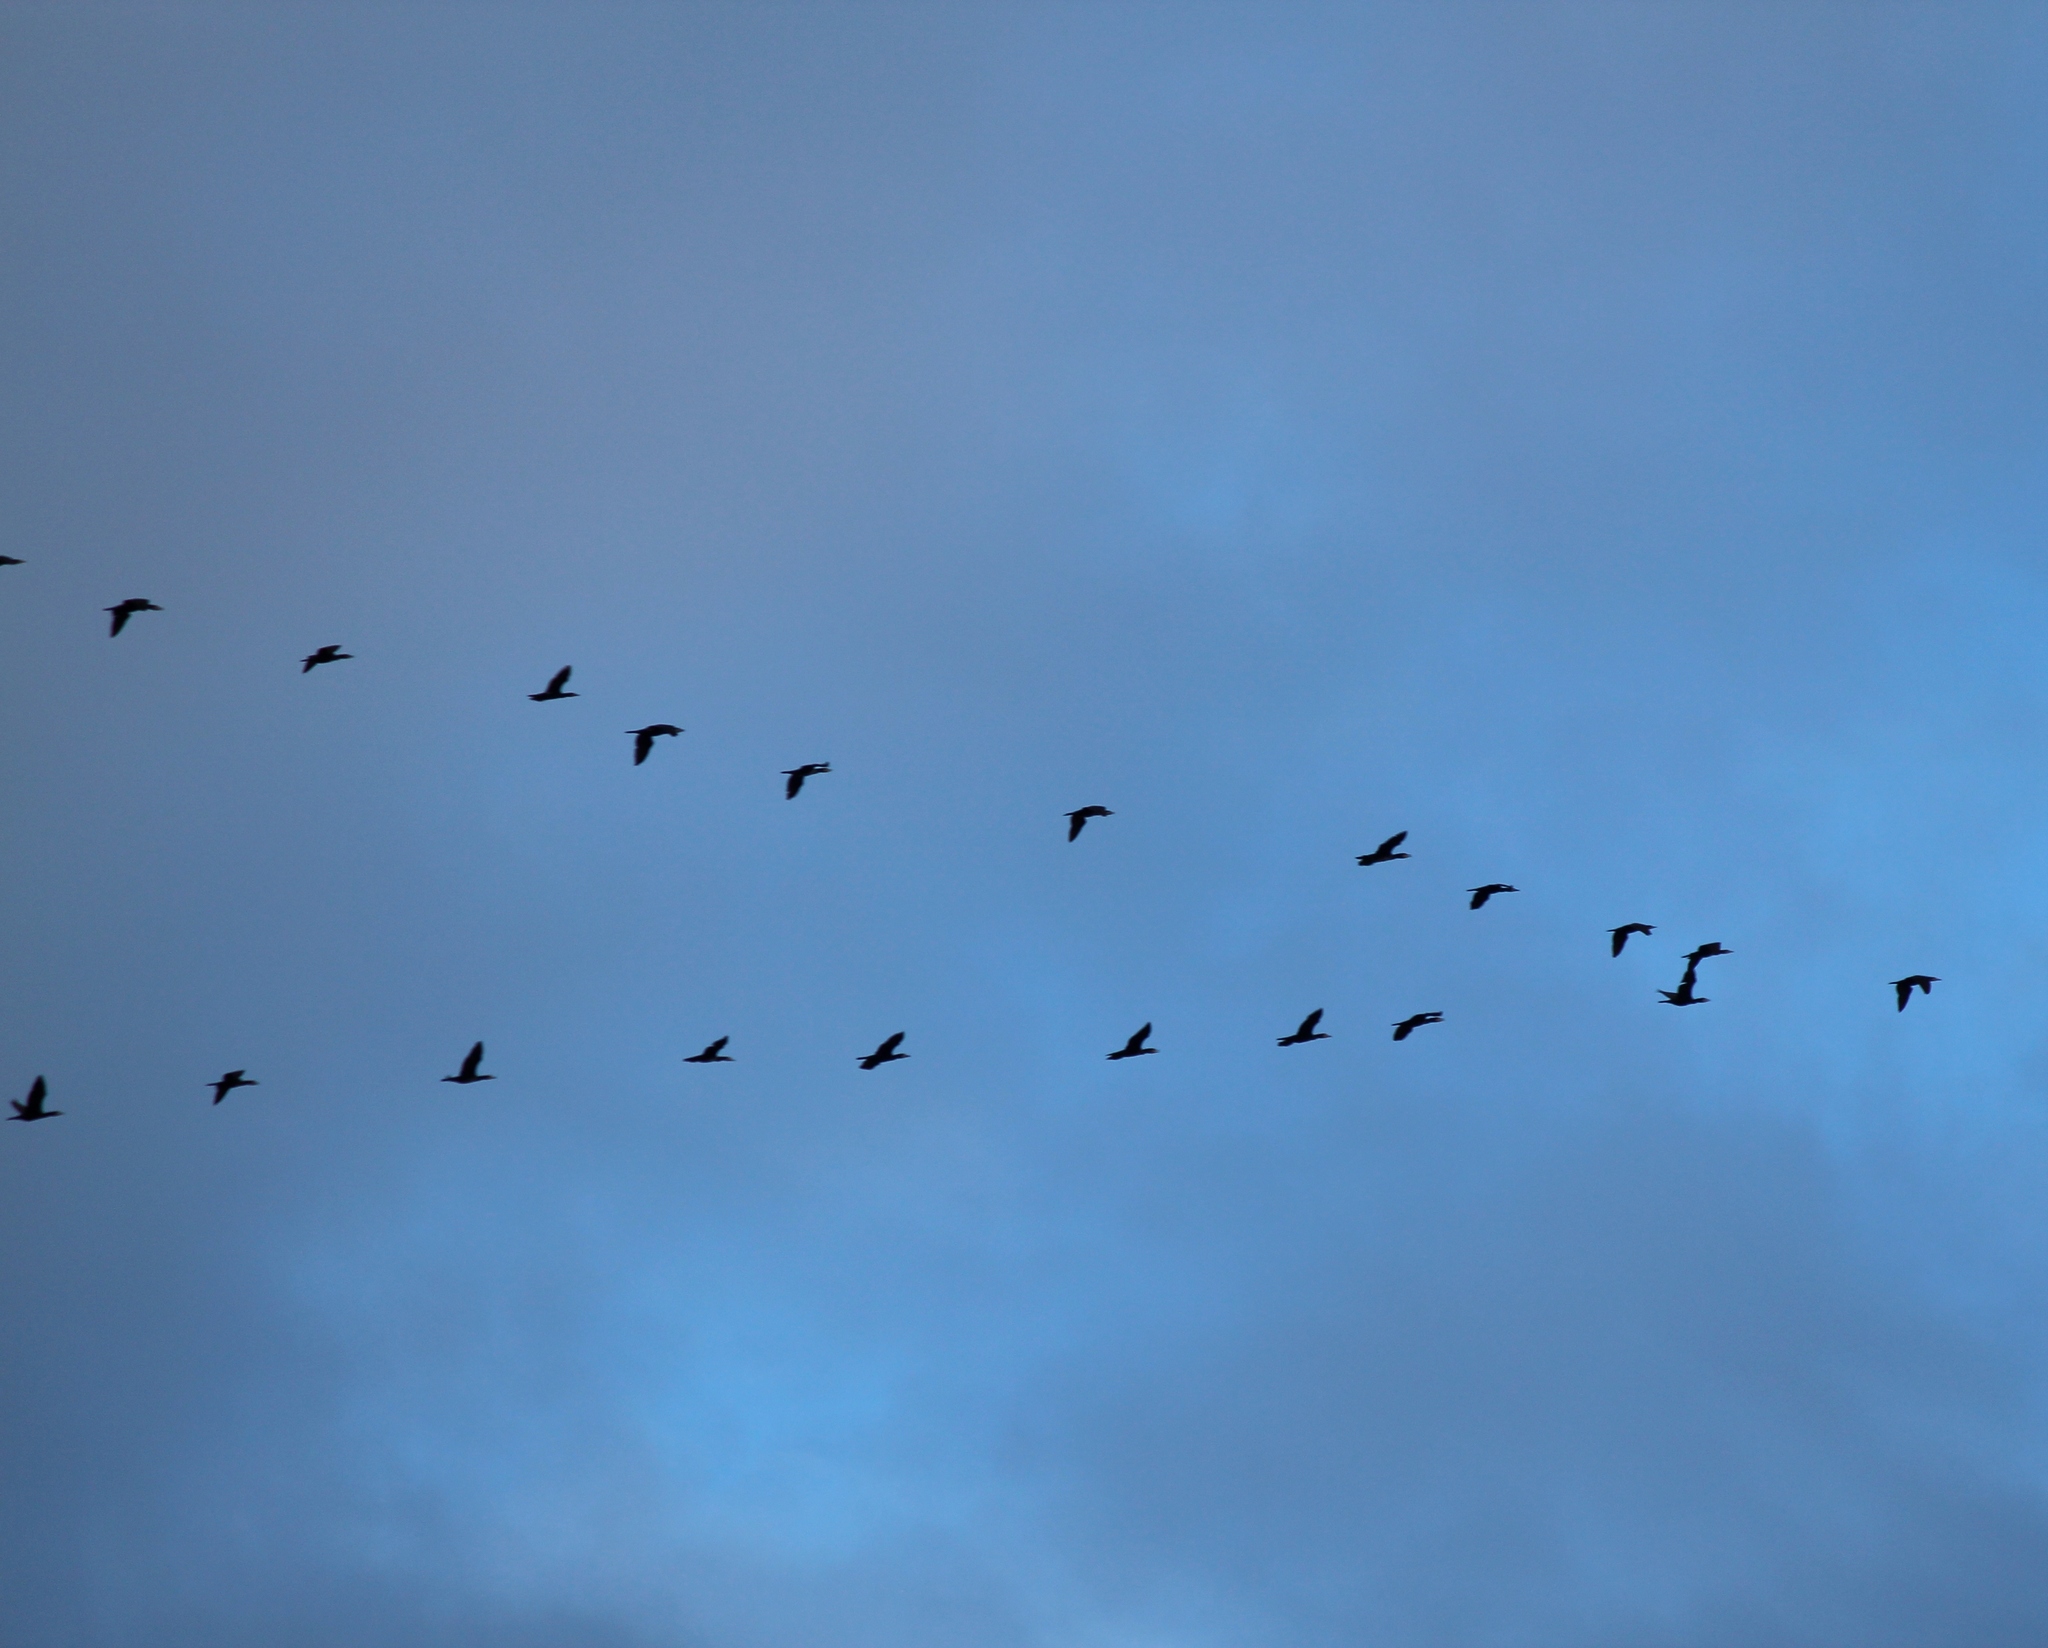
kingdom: Animalia
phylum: Chordata
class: Aves
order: Suliformes
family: Phalacrocoracidae
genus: Phalacrocorax
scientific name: Phalacrocorax carbo
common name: Great cormorant
